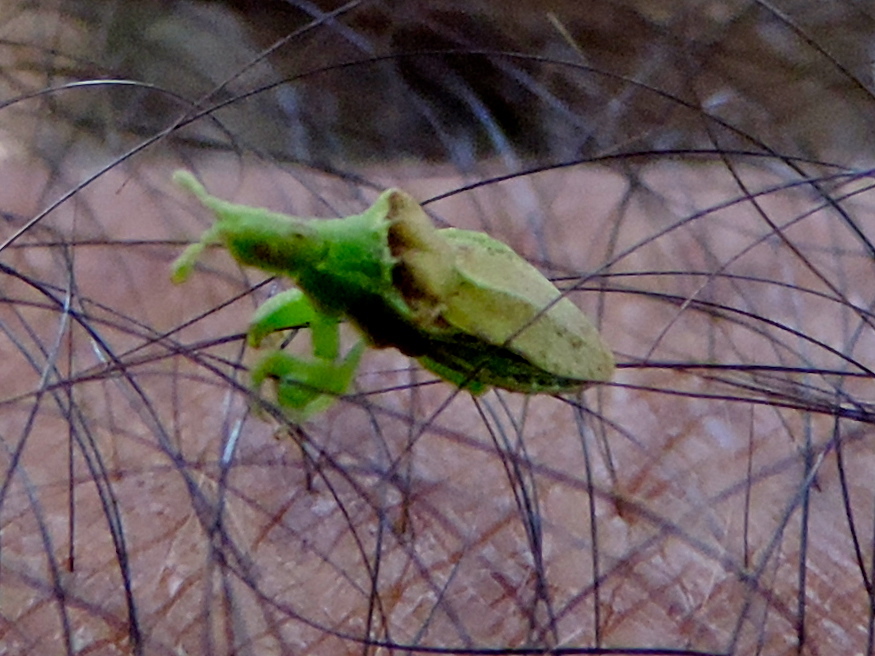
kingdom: Animalia
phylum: Arthropoda
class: Insecta
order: Hemiptera
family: Reduviidae
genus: Lophoscutus
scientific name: Lophoscutus
